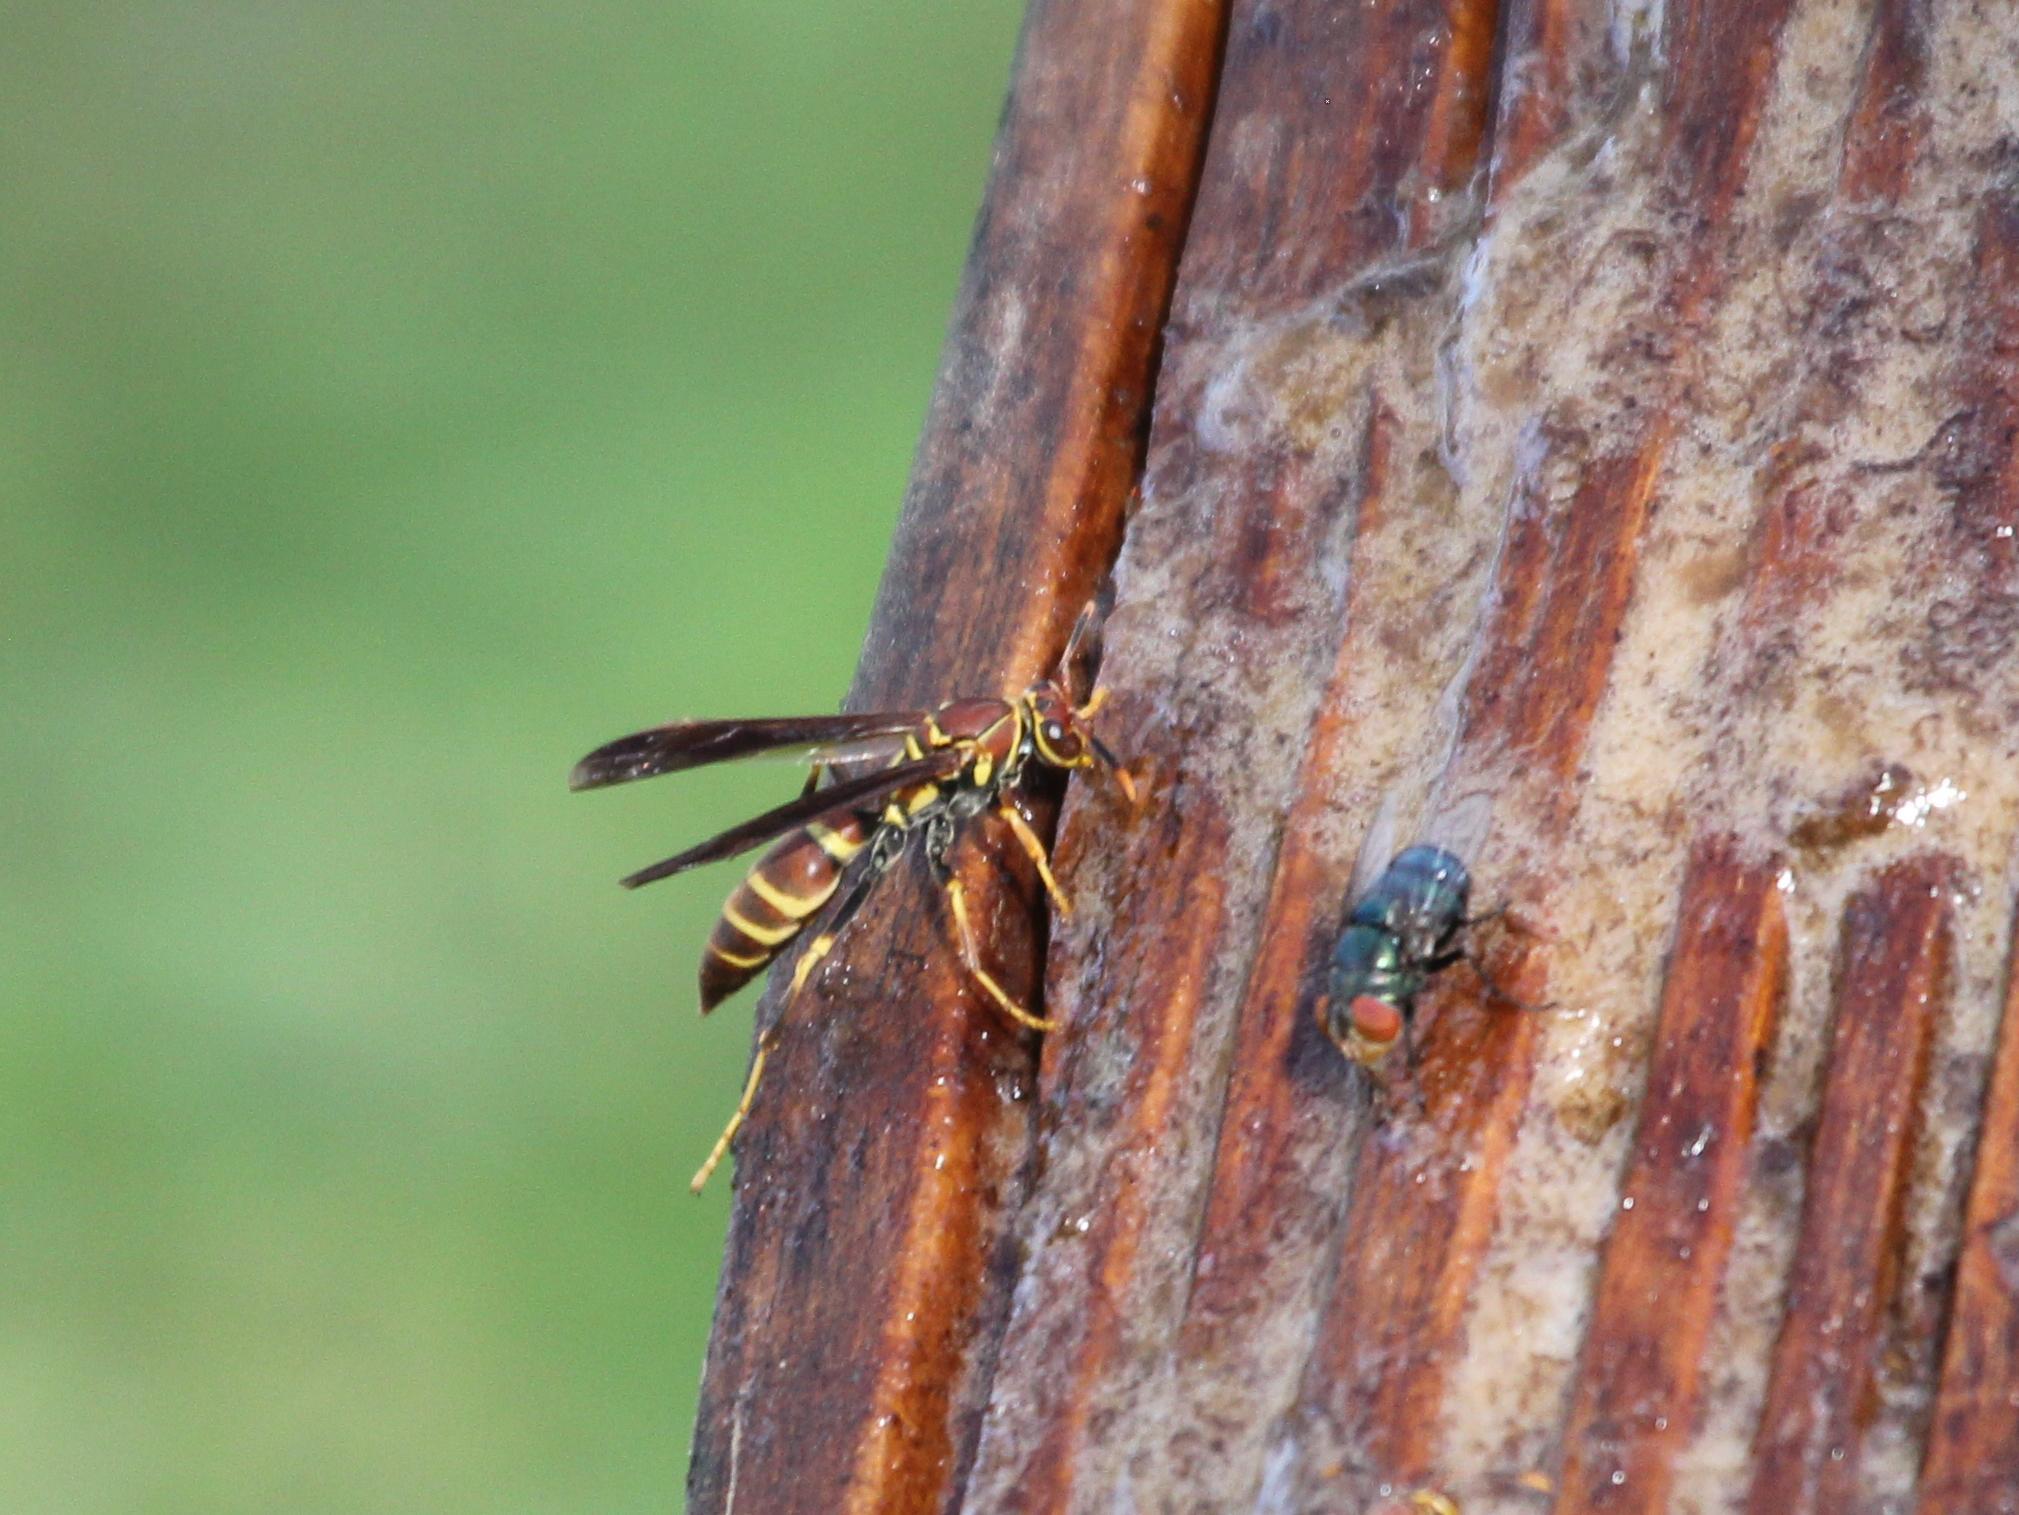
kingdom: Animalia
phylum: Arthropoda
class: Insecta
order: Hymenoptera
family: Eumenidae
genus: Polistes
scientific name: Polistes instabilis
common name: Unstable paper wasp
